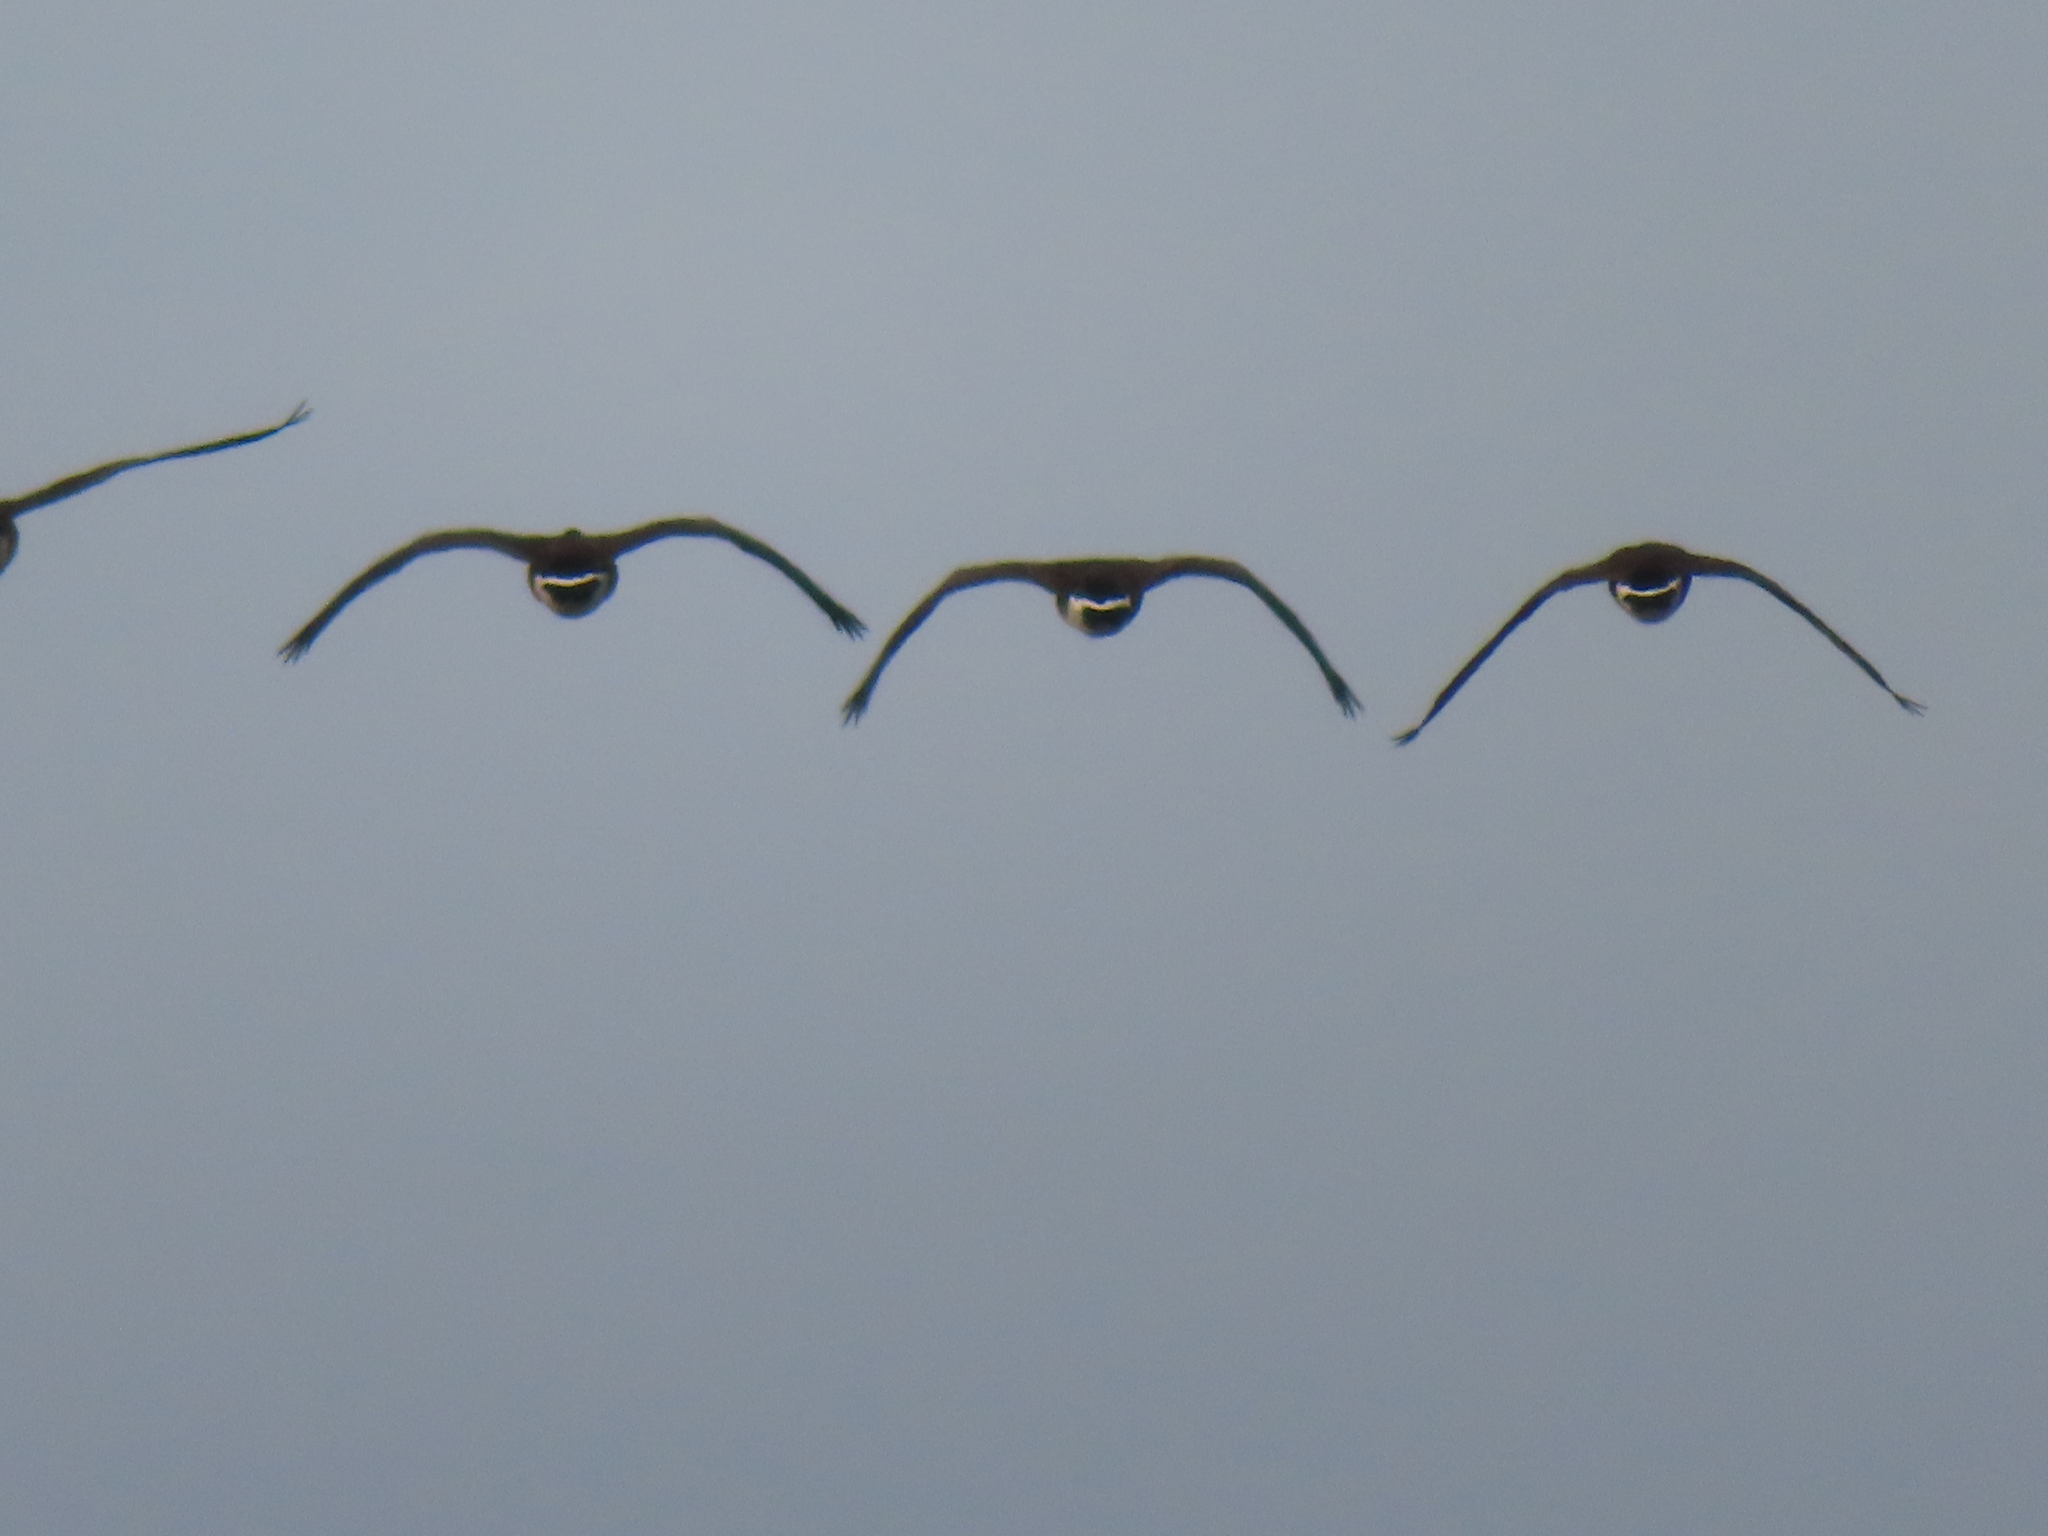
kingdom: Animalia
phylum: Chordata
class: Aves
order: Anseriformes
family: Anatidae
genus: Branta
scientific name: Branta canadensis
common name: Canada goose
